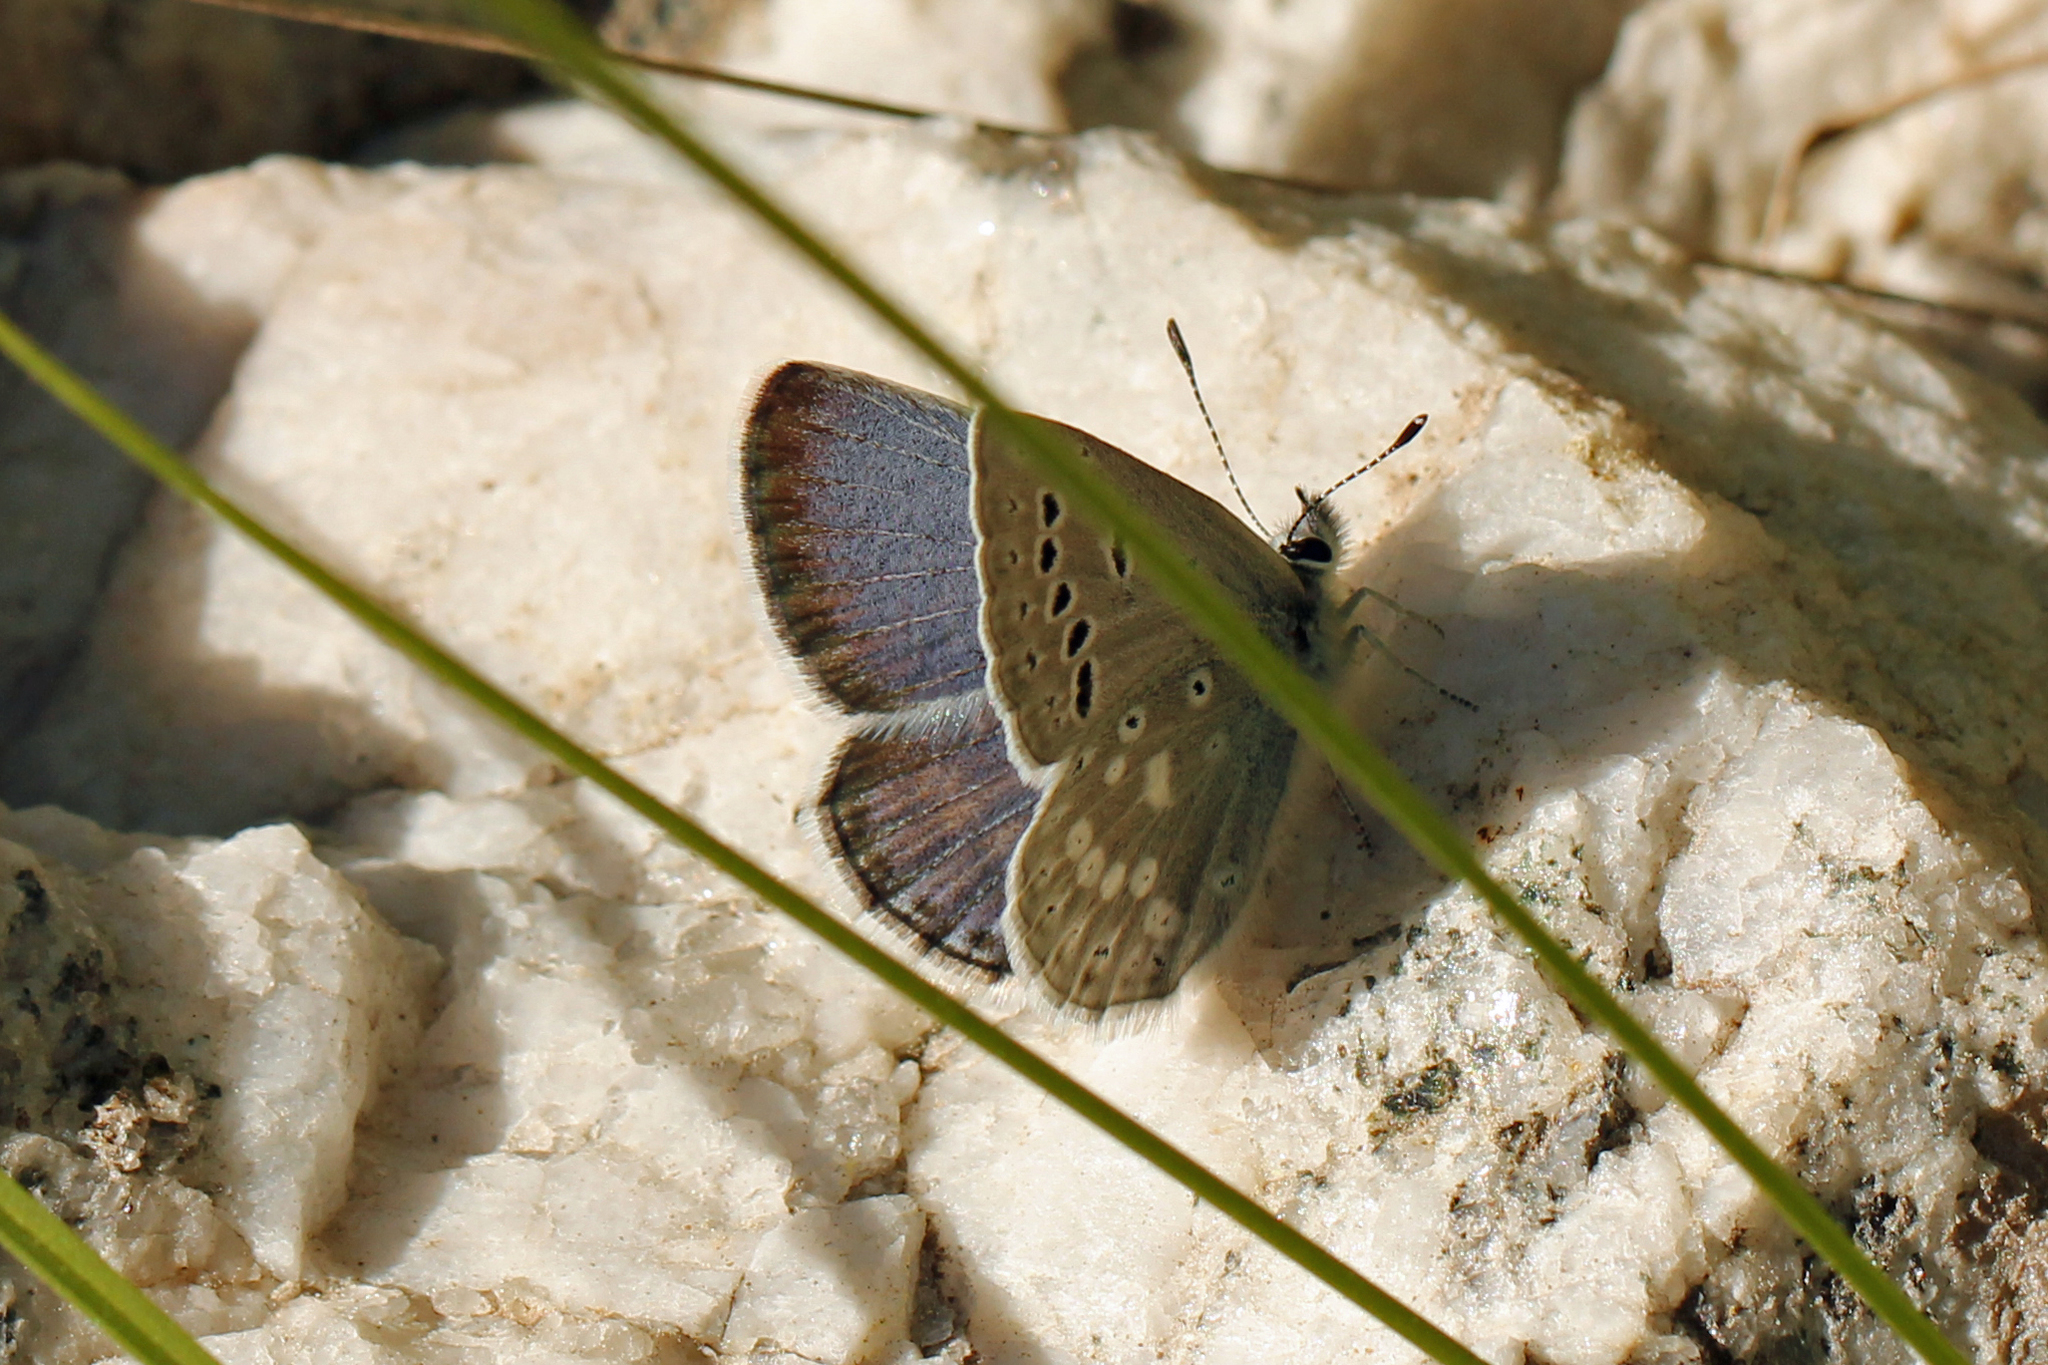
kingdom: Animalia
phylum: Arthropoda
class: Insecta
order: Lepidoptera
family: Lycaenidae
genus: Icaricia
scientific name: Icaricia icarioides
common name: Boisduval's blue
